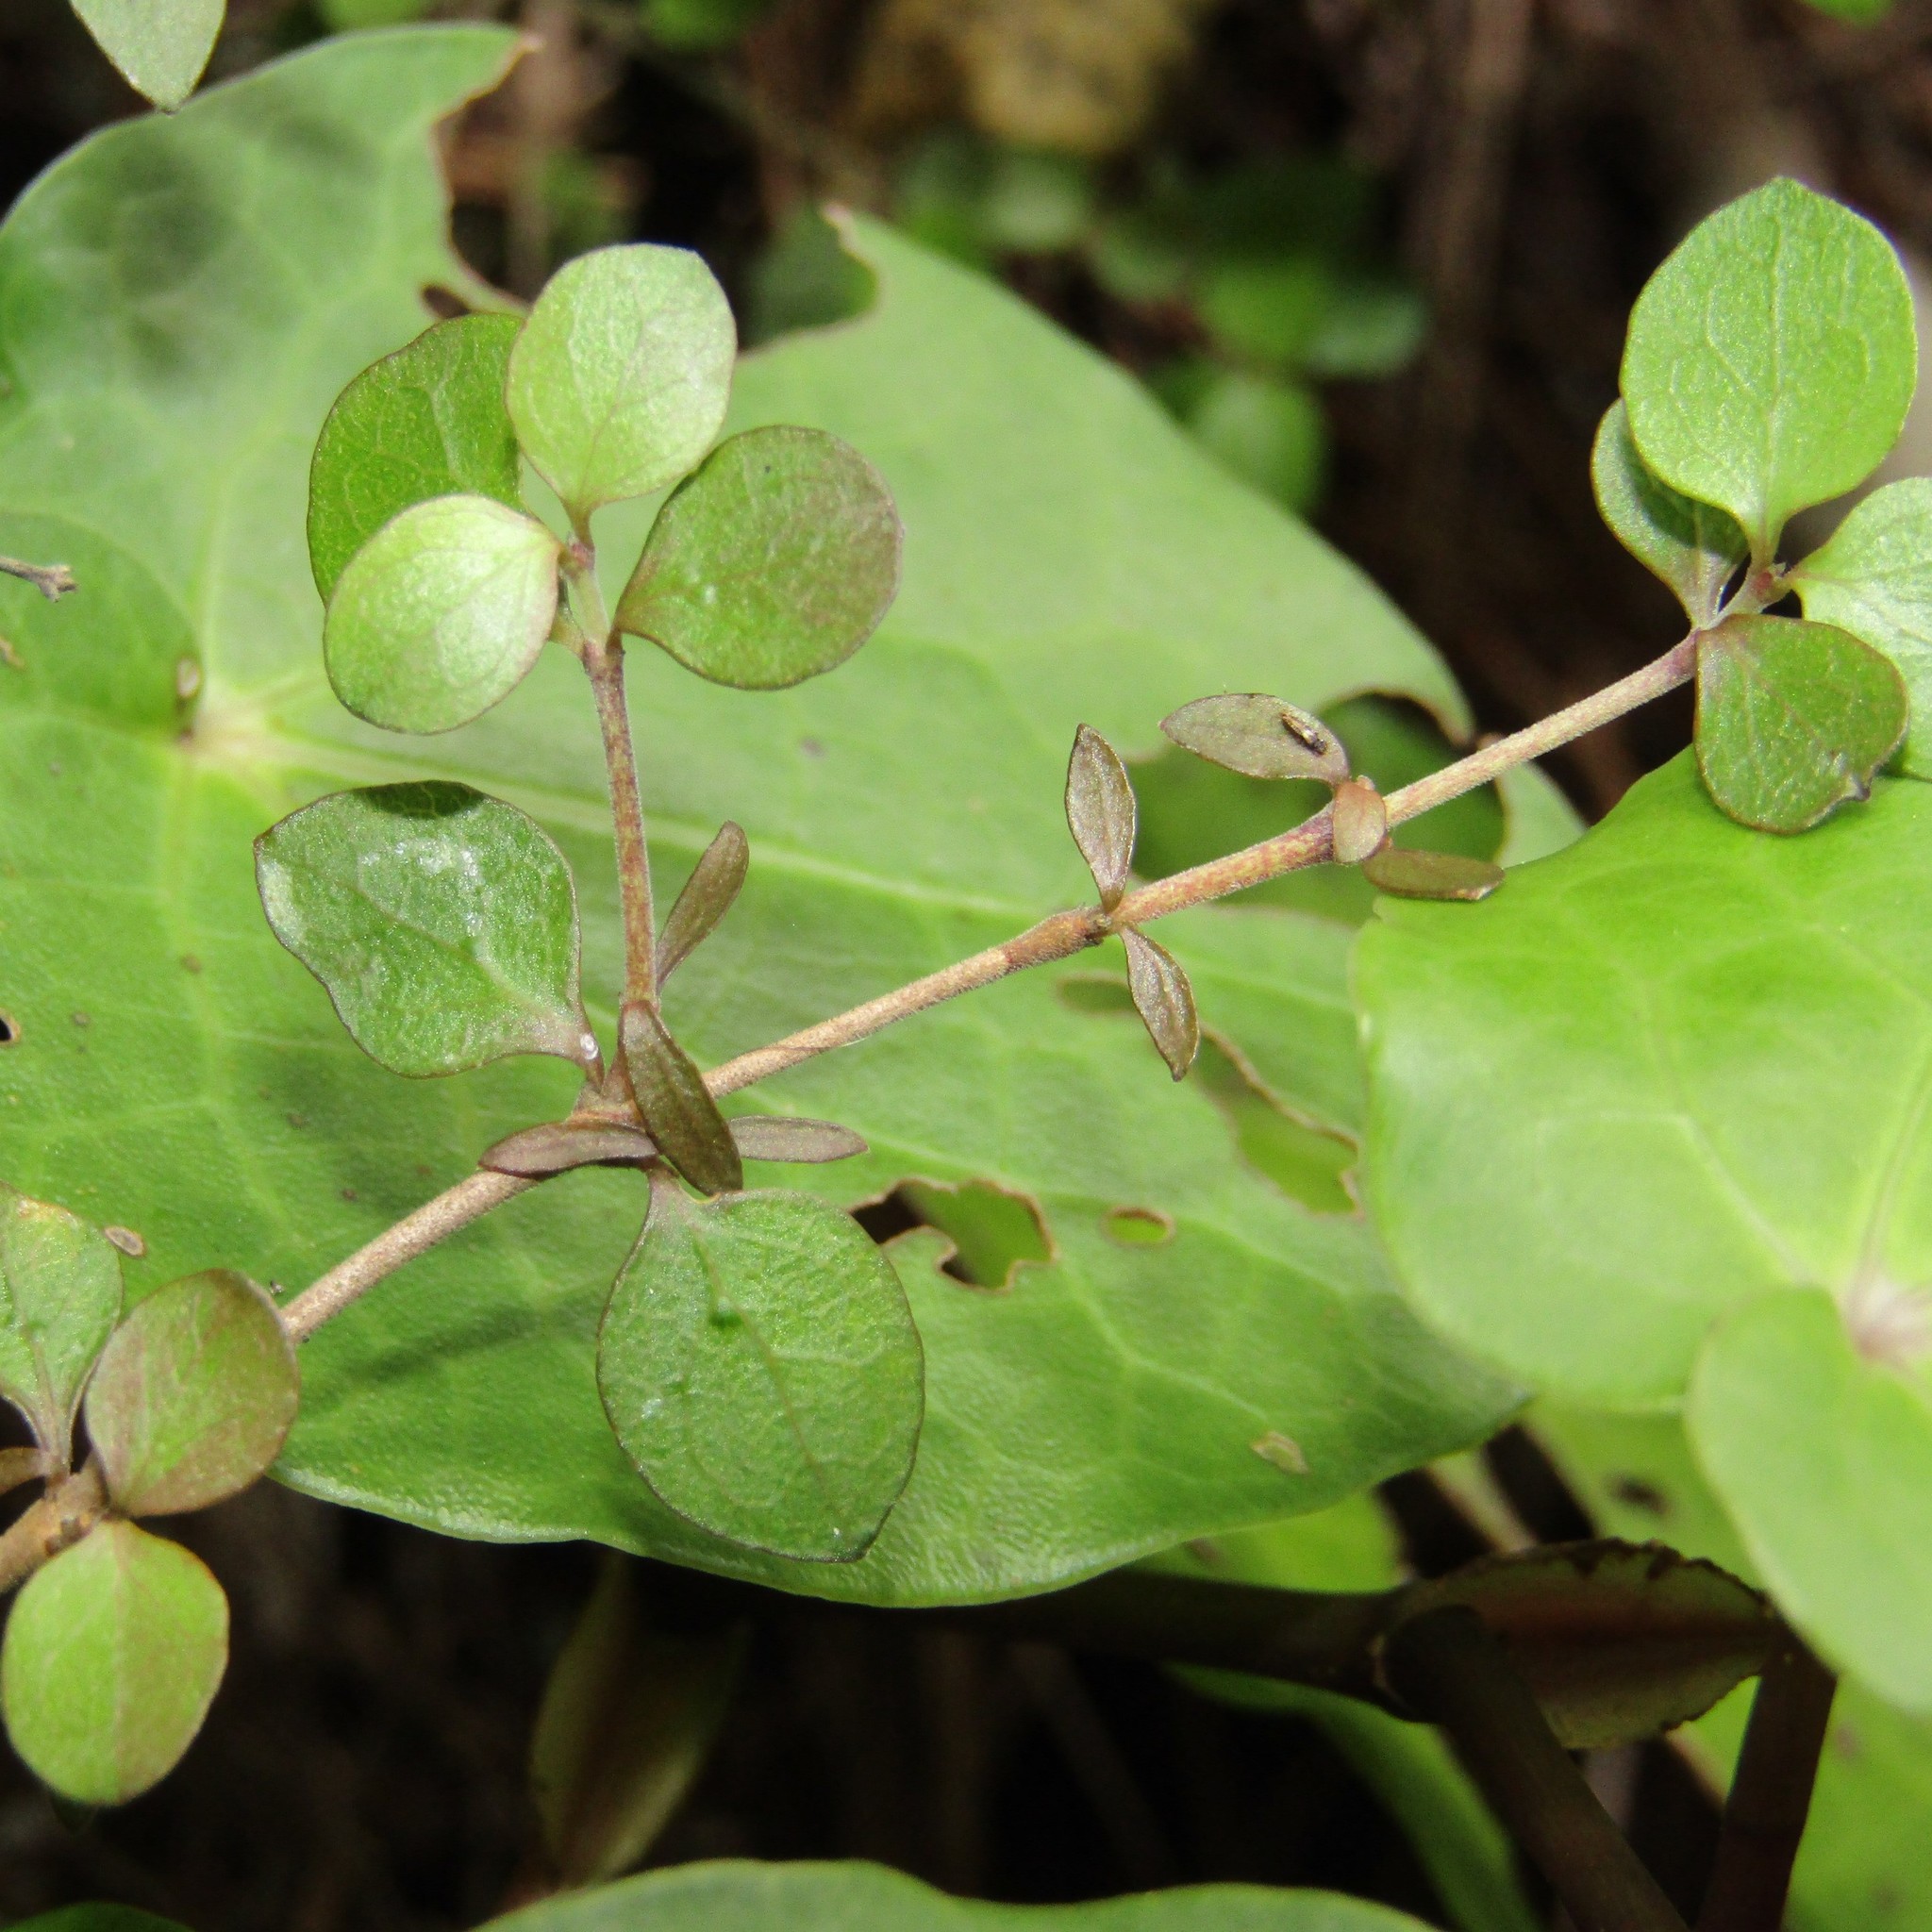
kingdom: Plantae
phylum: Tracheophyta
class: Magnoliopsida
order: Gentianales
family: Rubiaceae
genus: Coprosma
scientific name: Coprosma rhamnoides
